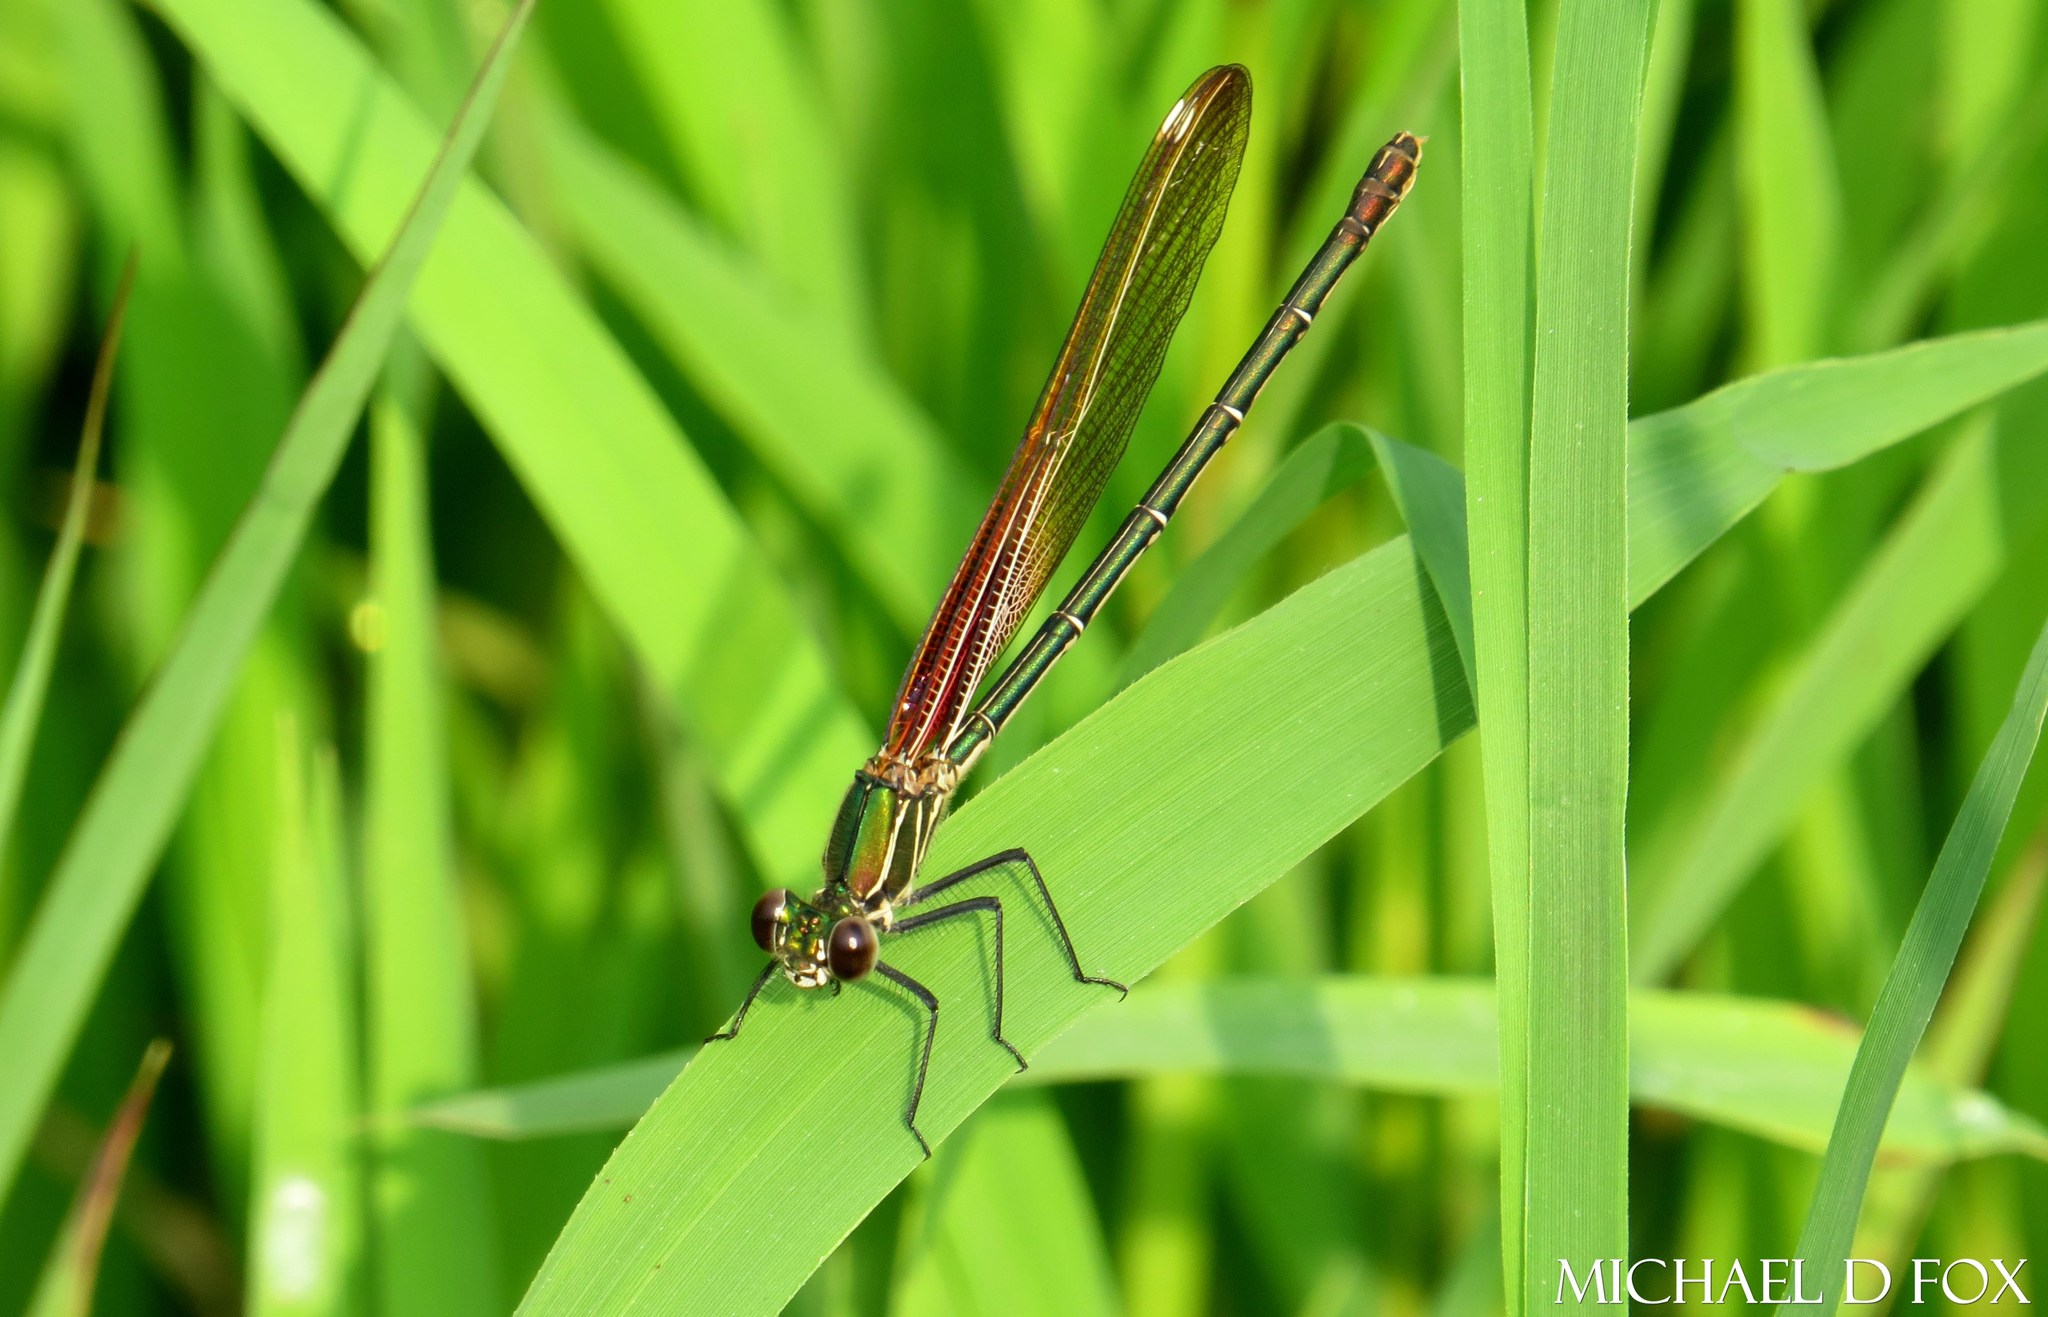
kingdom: Animalia
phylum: Arthropoda
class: Insecta
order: Odonata
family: Calopterygidae
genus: Hetaerina
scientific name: Hetaerina americana
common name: American rubyspot
